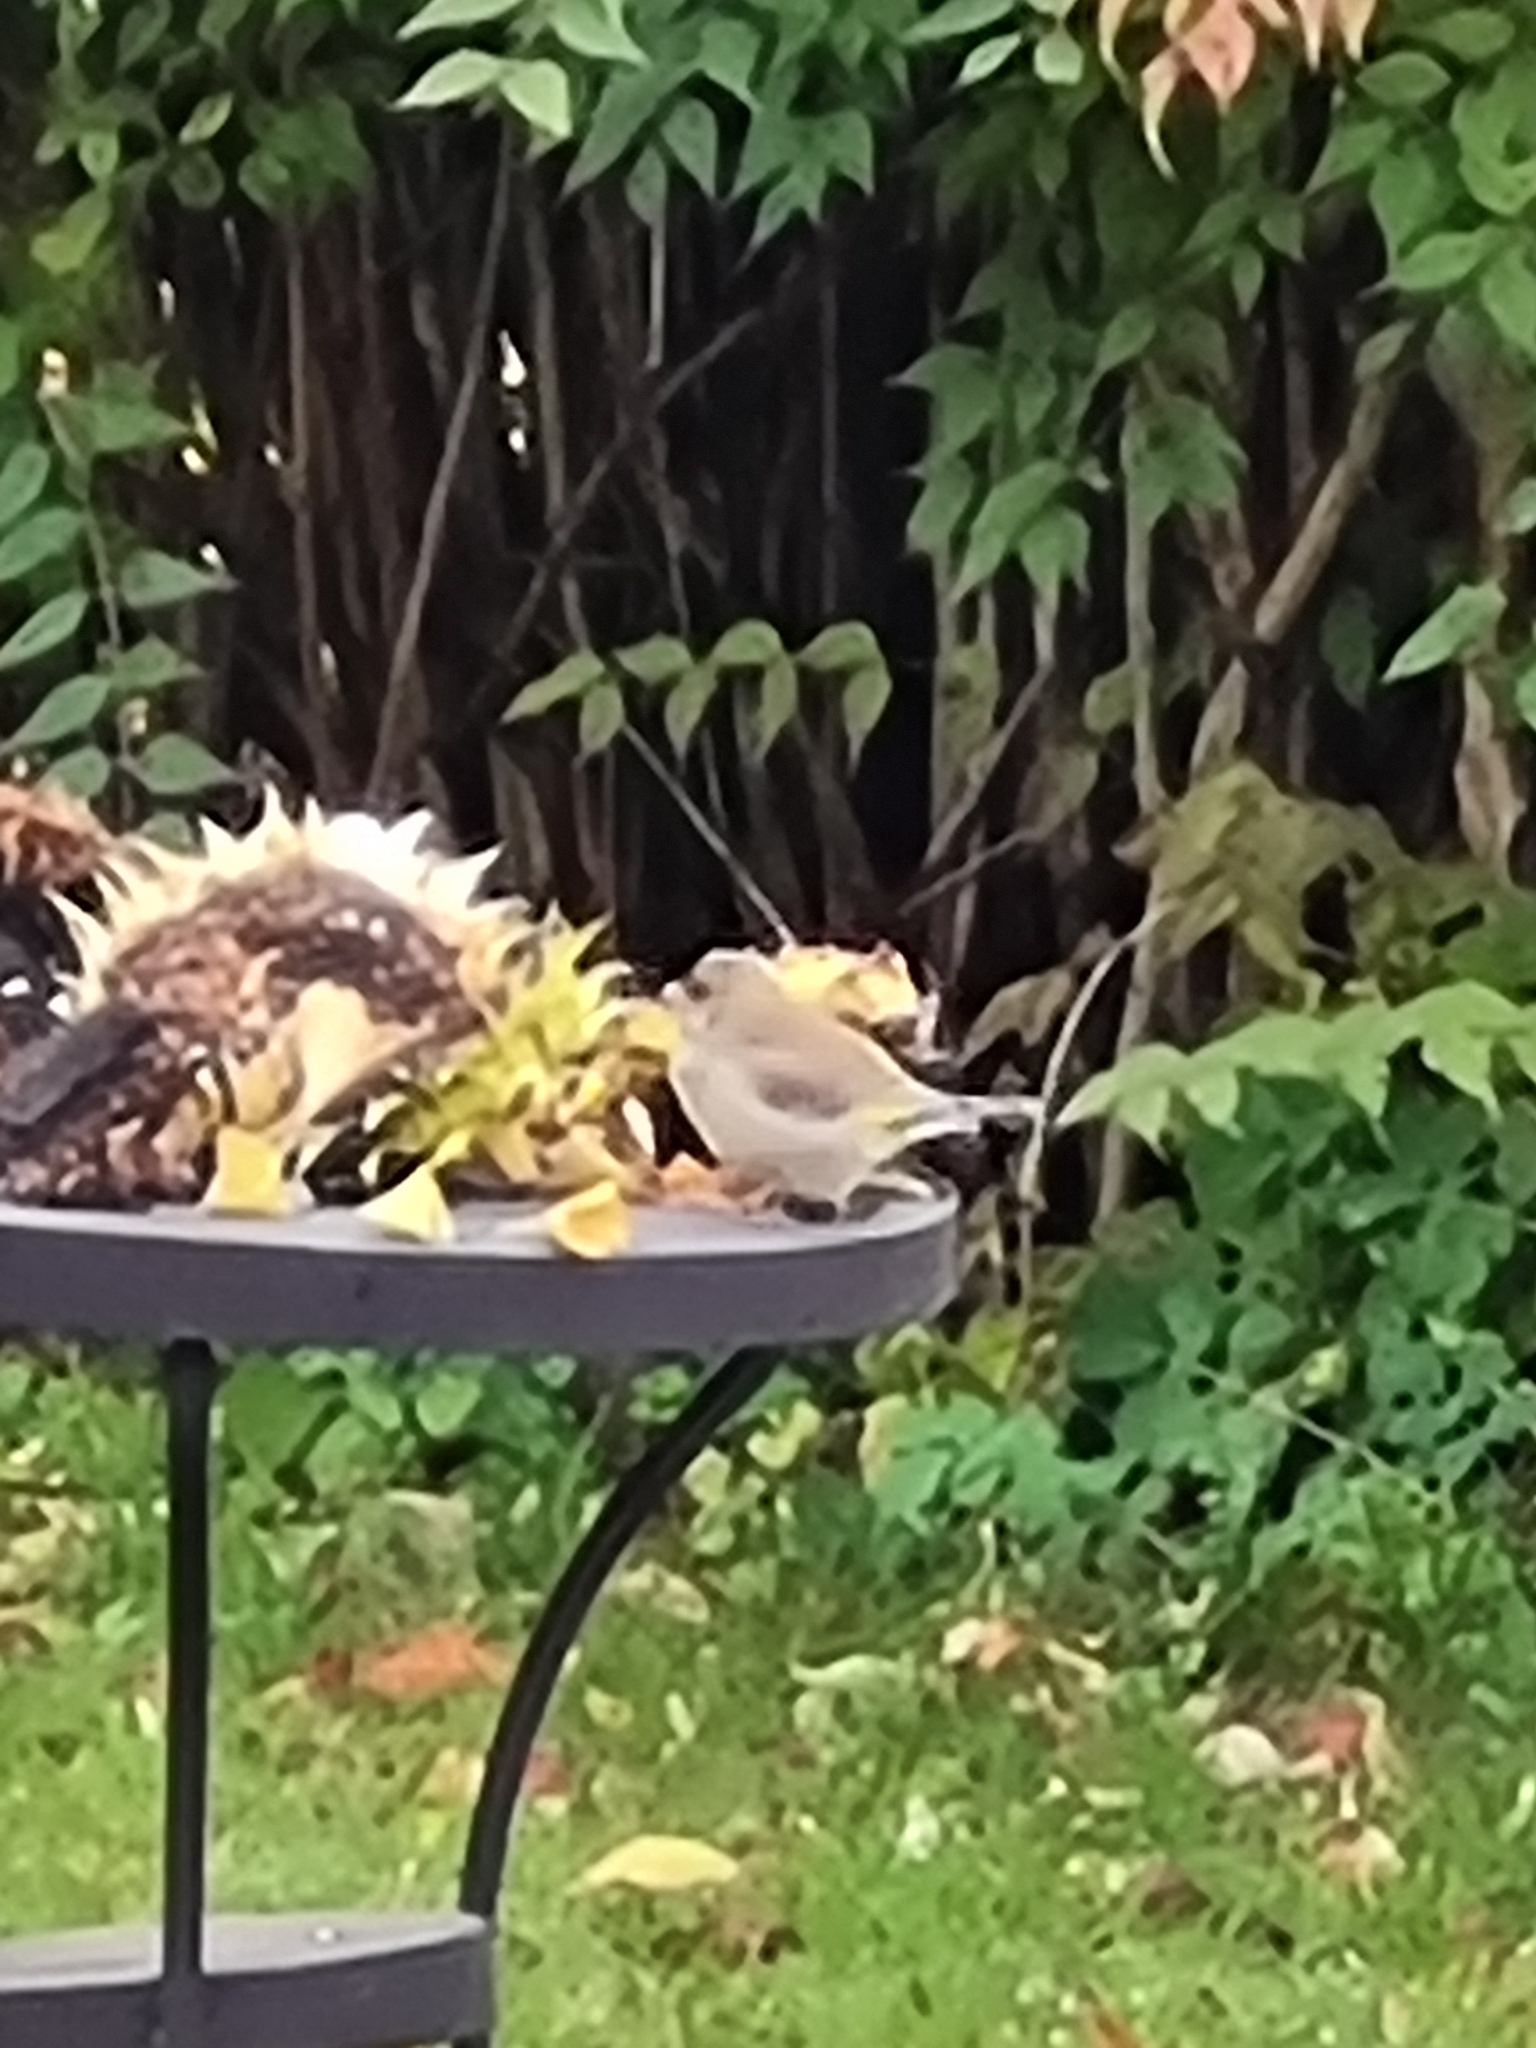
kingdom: Plantae
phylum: Tracheophyta
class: Liliopsida
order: Poales
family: Poaceae
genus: Chloris
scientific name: Chloris chloris
